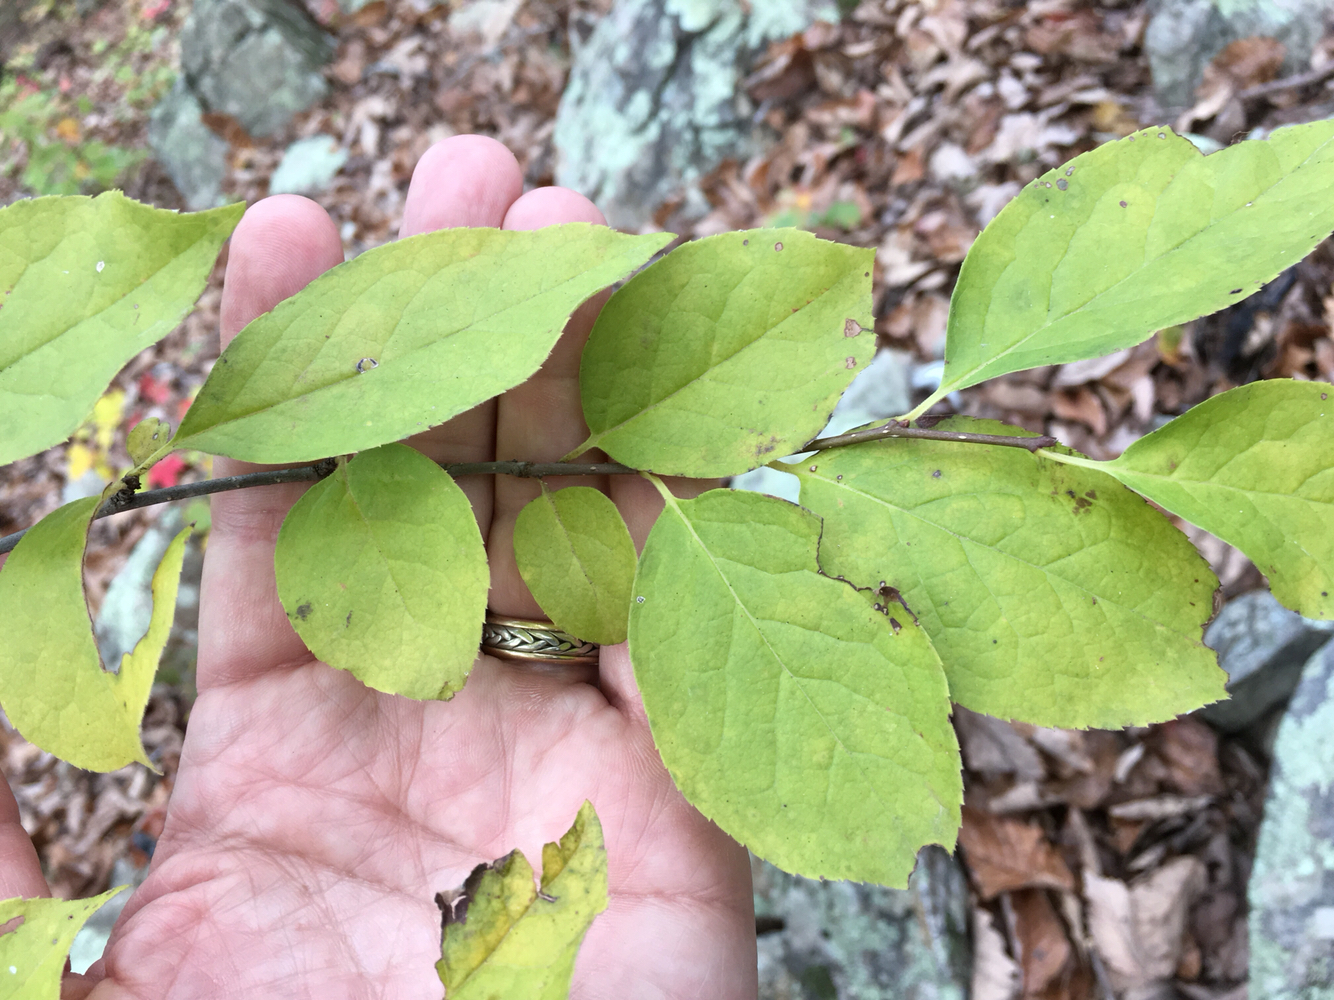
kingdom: Plantae
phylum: Tracheophyta
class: Magnoliopsida
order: Aquifoliales
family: Aquifoliaceae
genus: Ilex
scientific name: Ilex ambigua
